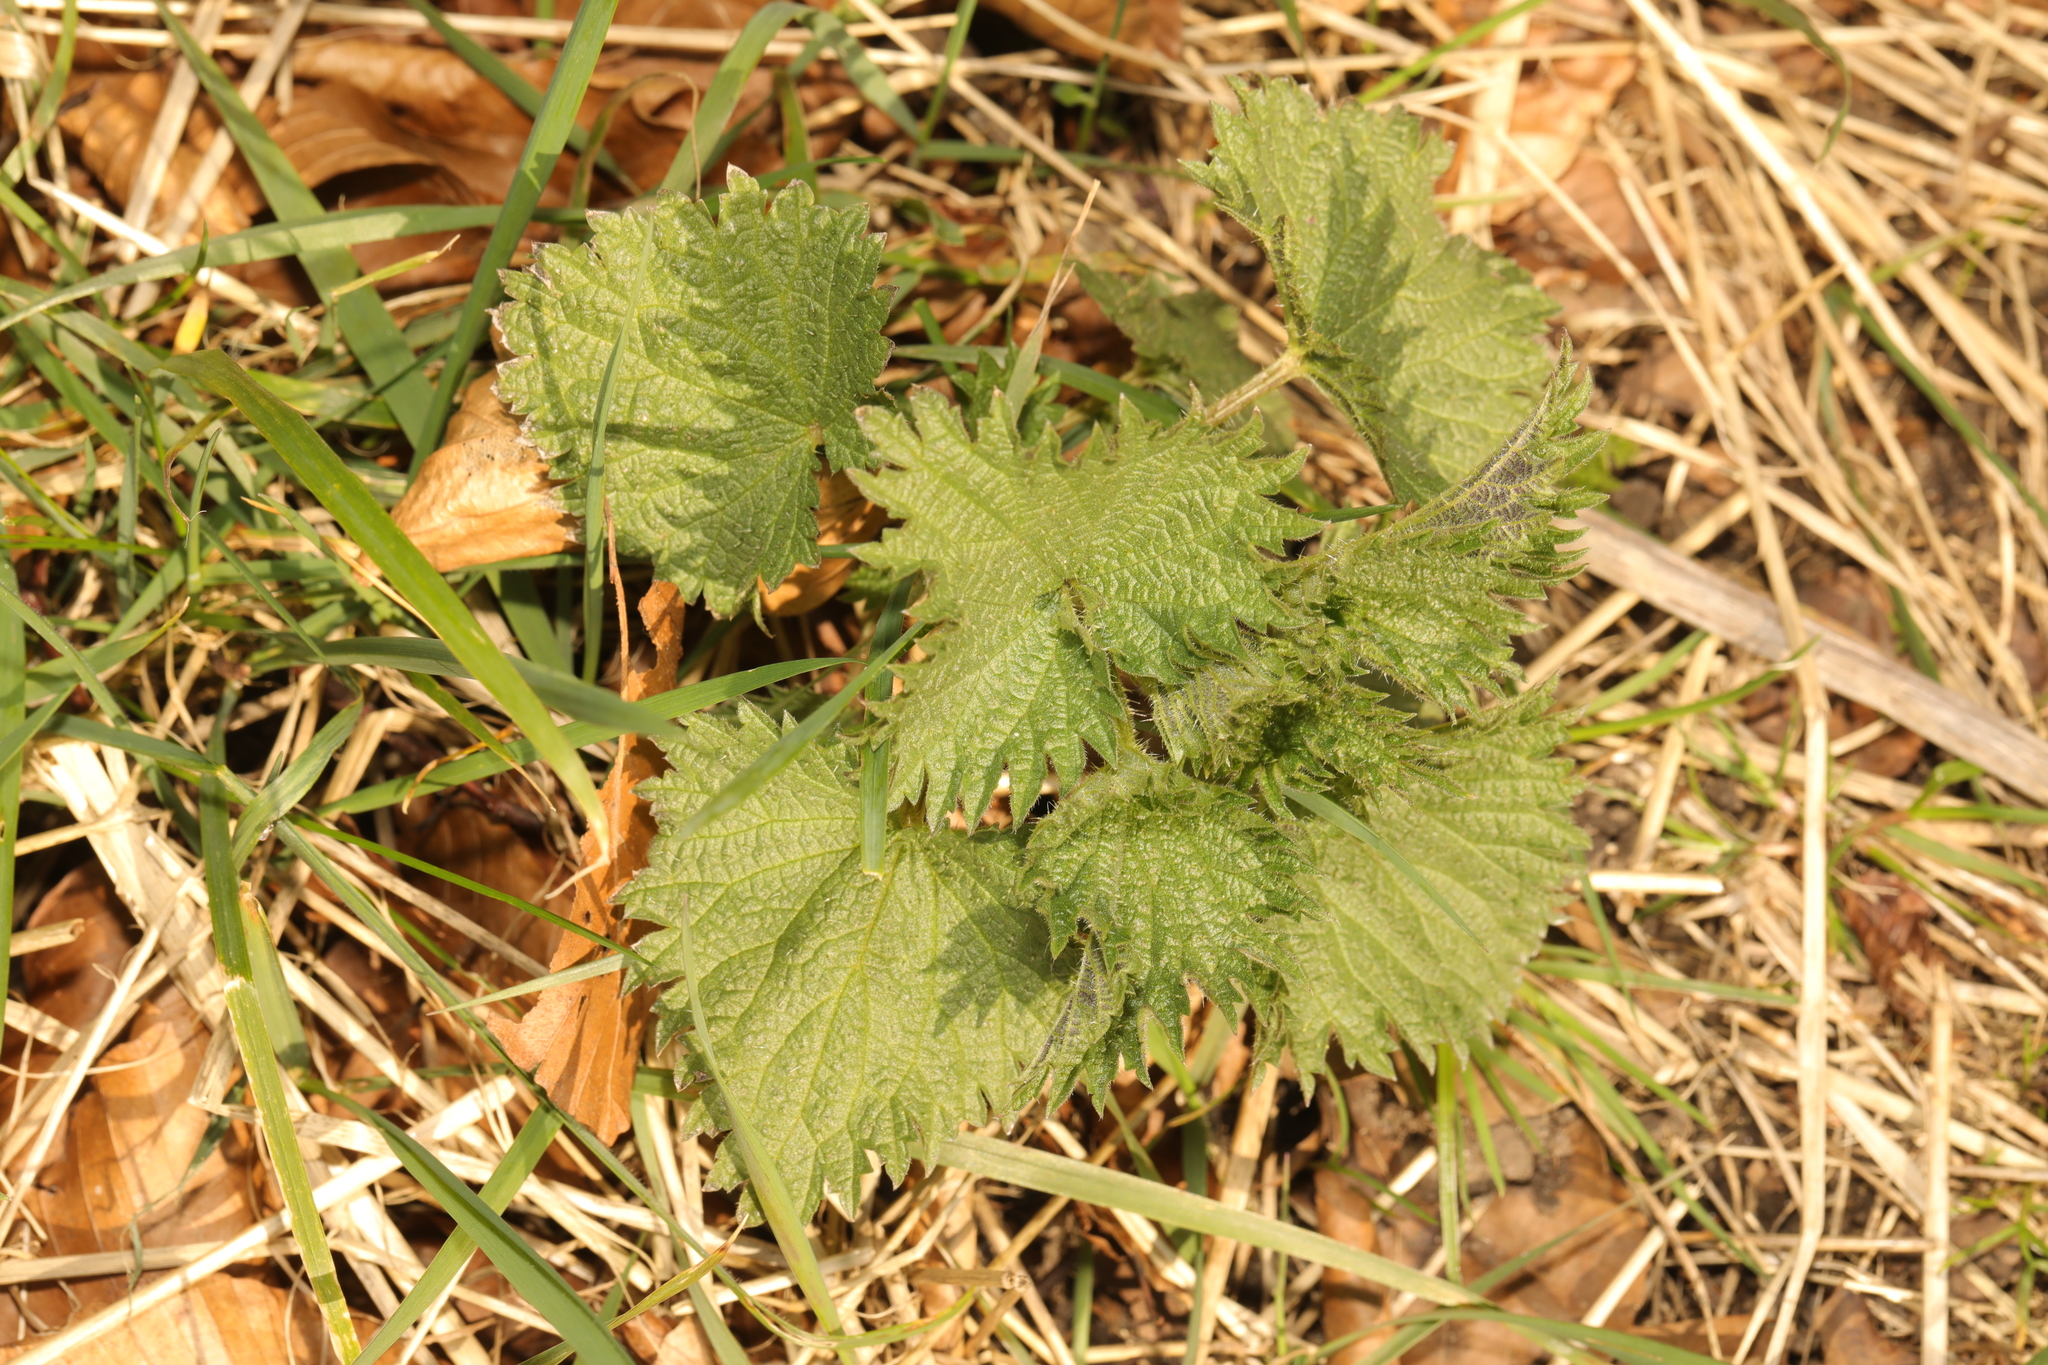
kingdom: Plantae
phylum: Tracheophyta
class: Magnoliopsida
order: Rosales
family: Urticaceae
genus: Urtica
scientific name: Urtica dioica
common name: Common nettle
